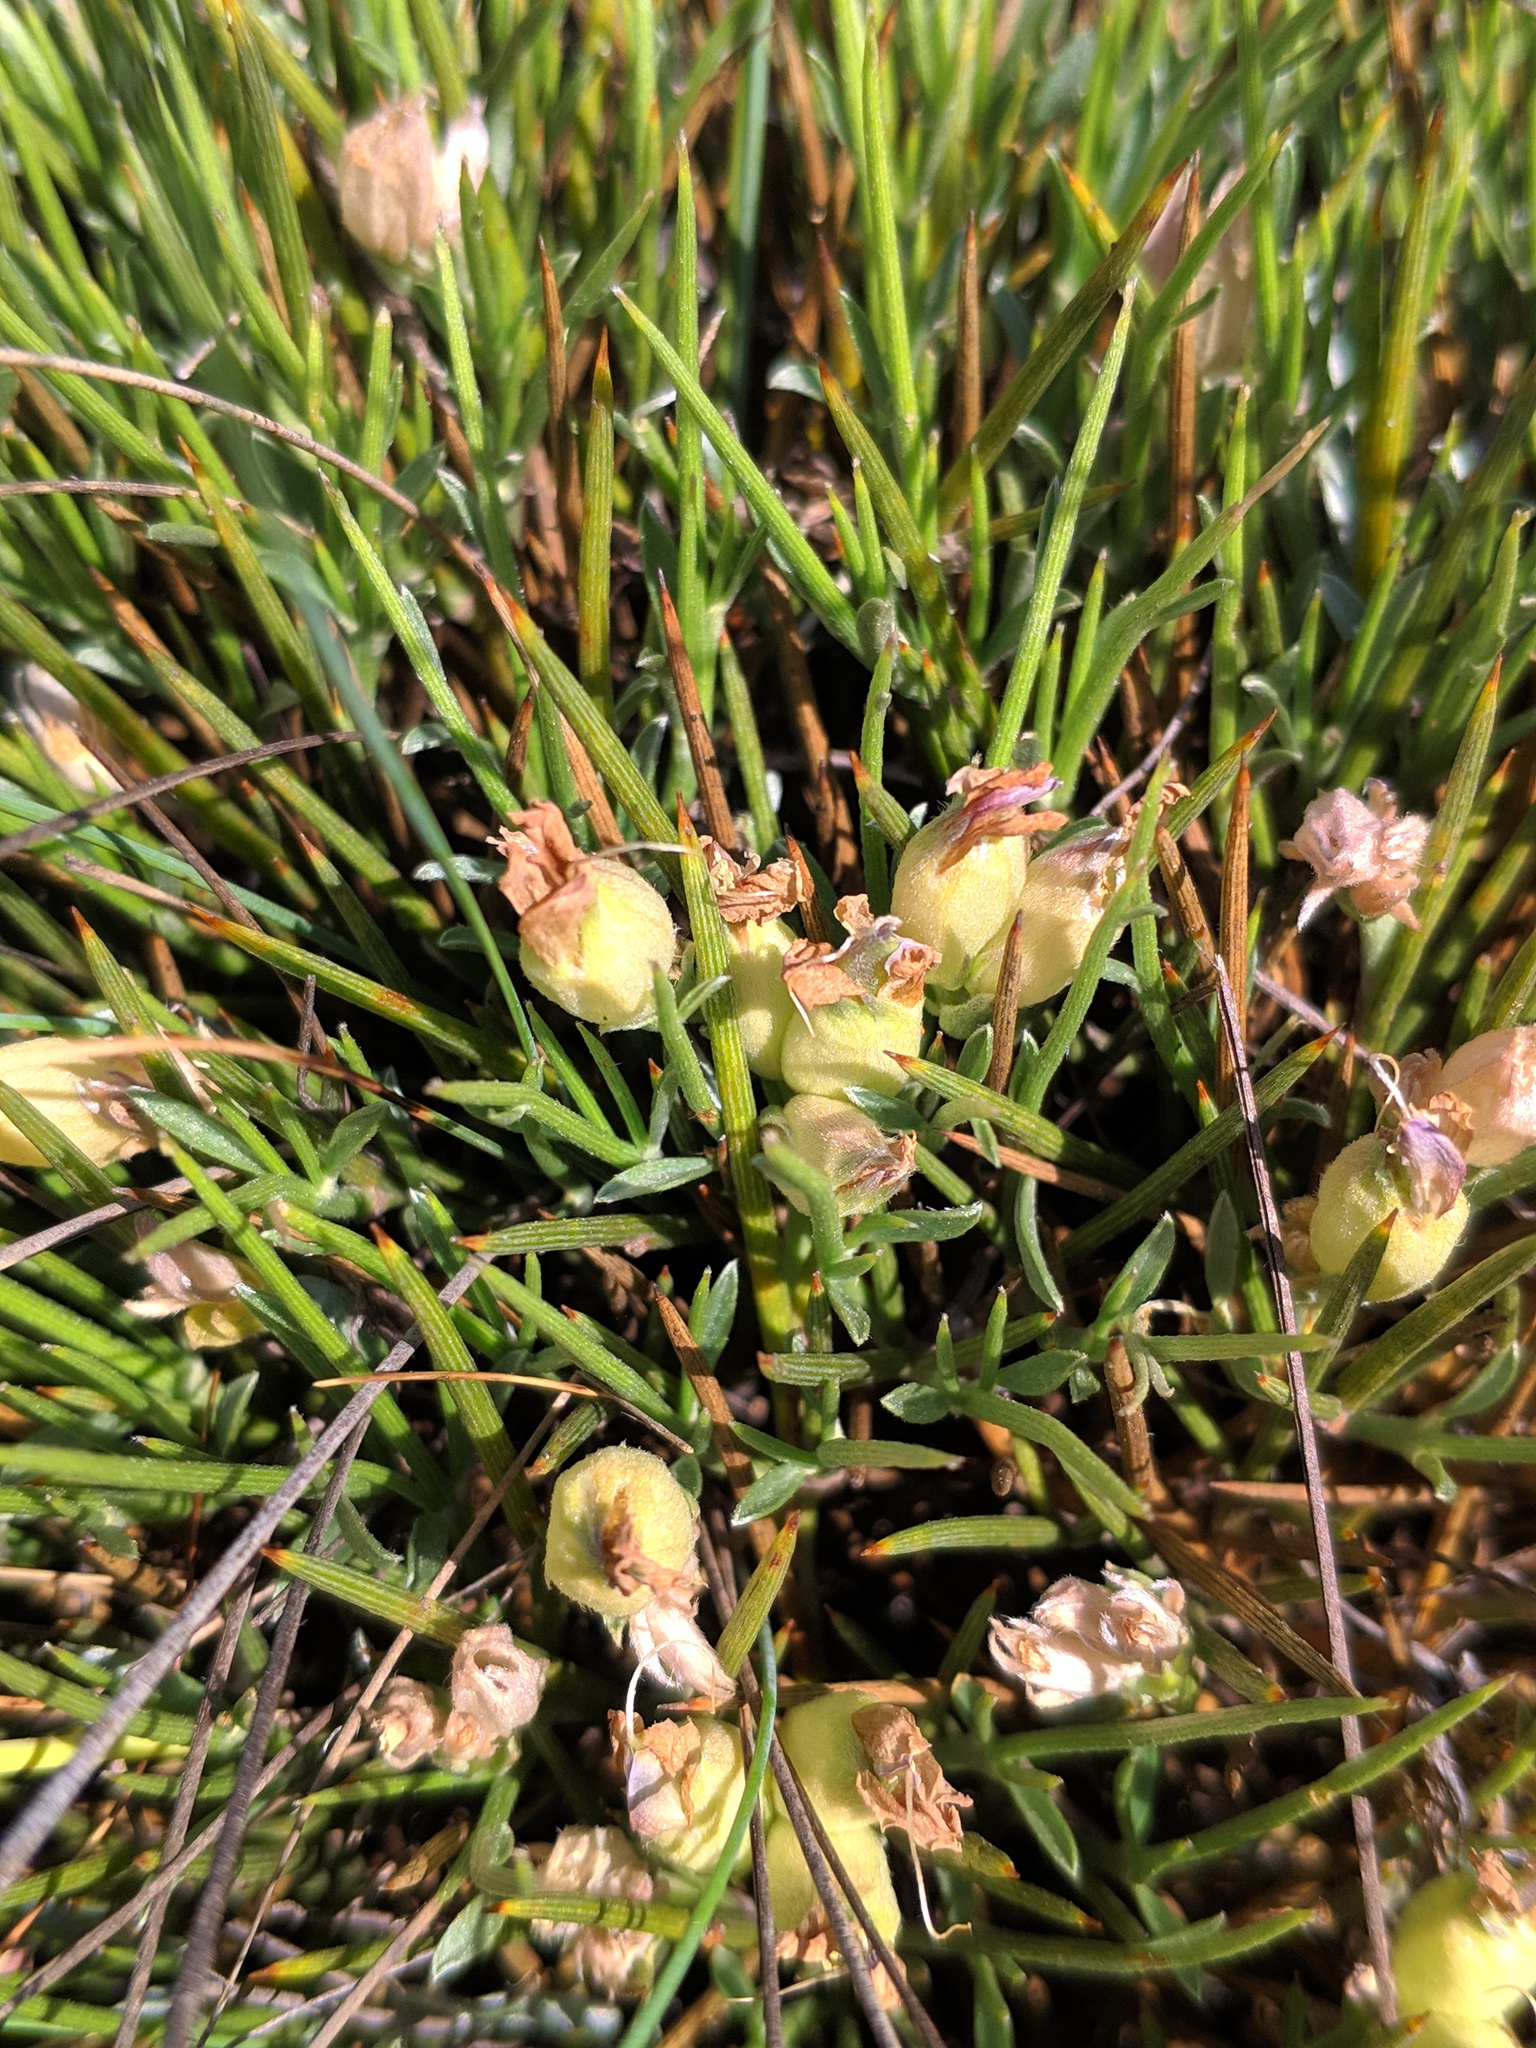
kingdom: Plantae
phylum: Tracheophyta
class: Magnoliopsida
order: Fabales
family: Fabaceae
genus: Erinacea
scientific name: Erinacea anthyllis
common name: Hedgehog-broom
